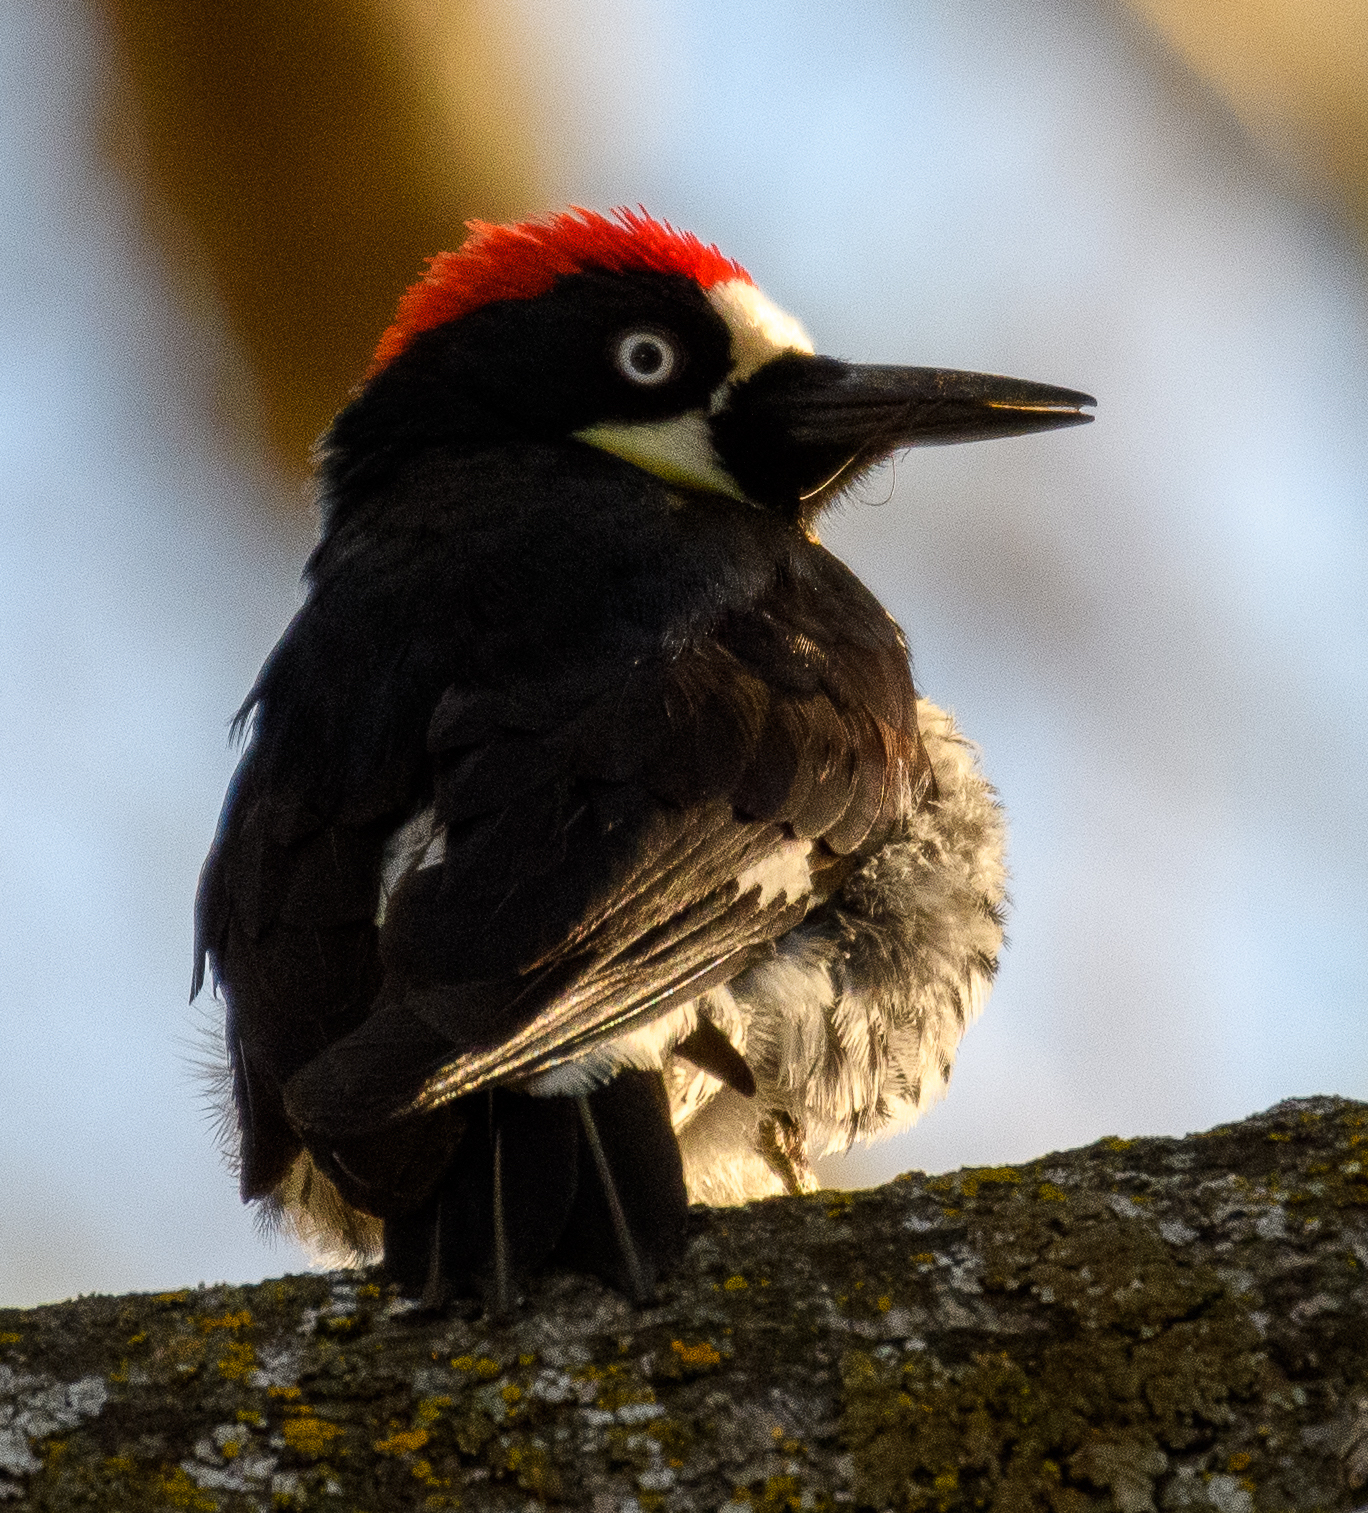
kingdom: Animalia
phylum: Chordata
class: Aves
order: Piciformes
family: Picidae
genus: Melanerpes
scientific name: Melanerpes formicivorus
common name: Acorn woodpecker
